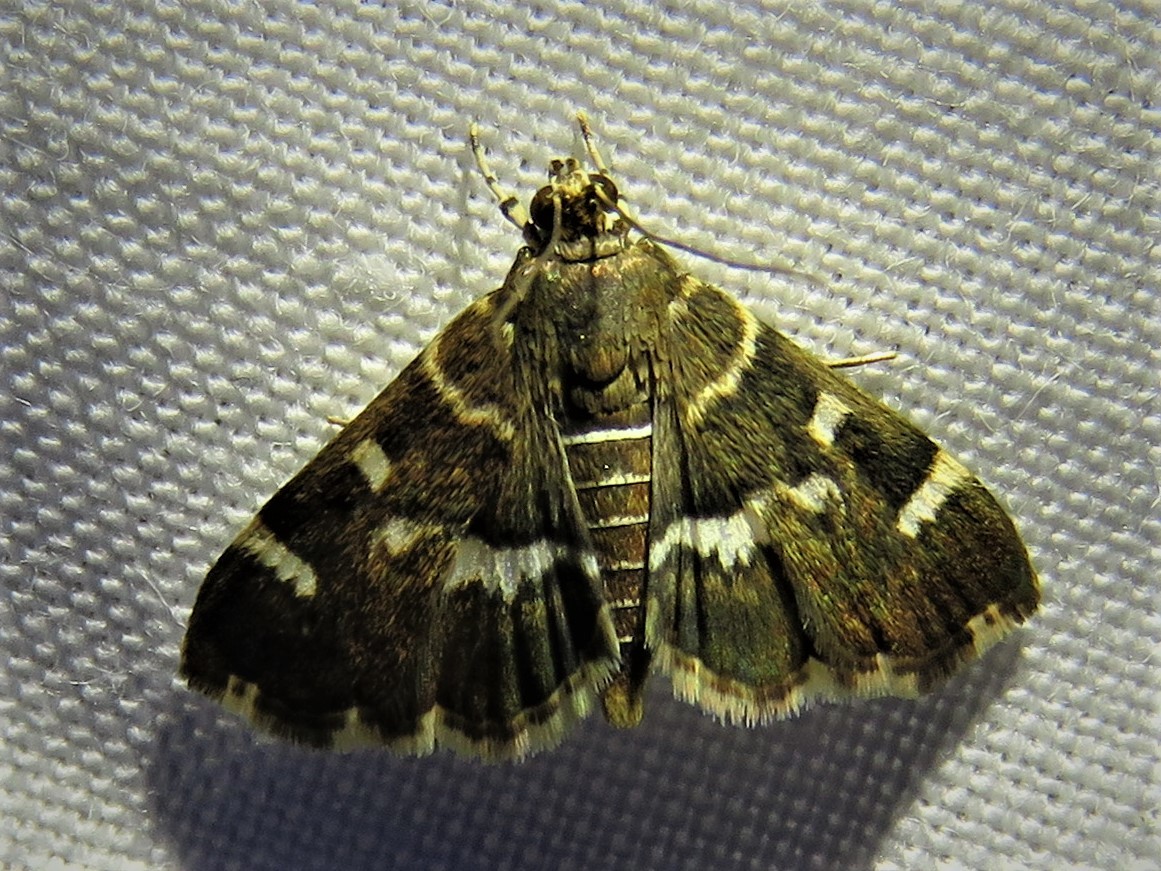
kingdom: Animalia
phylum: Arthropoda
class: Insecta
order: Lepidoptera
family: Crambidae
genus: Hymenia
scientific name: Hymenia perspectalis
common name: Spotted beet webworm
